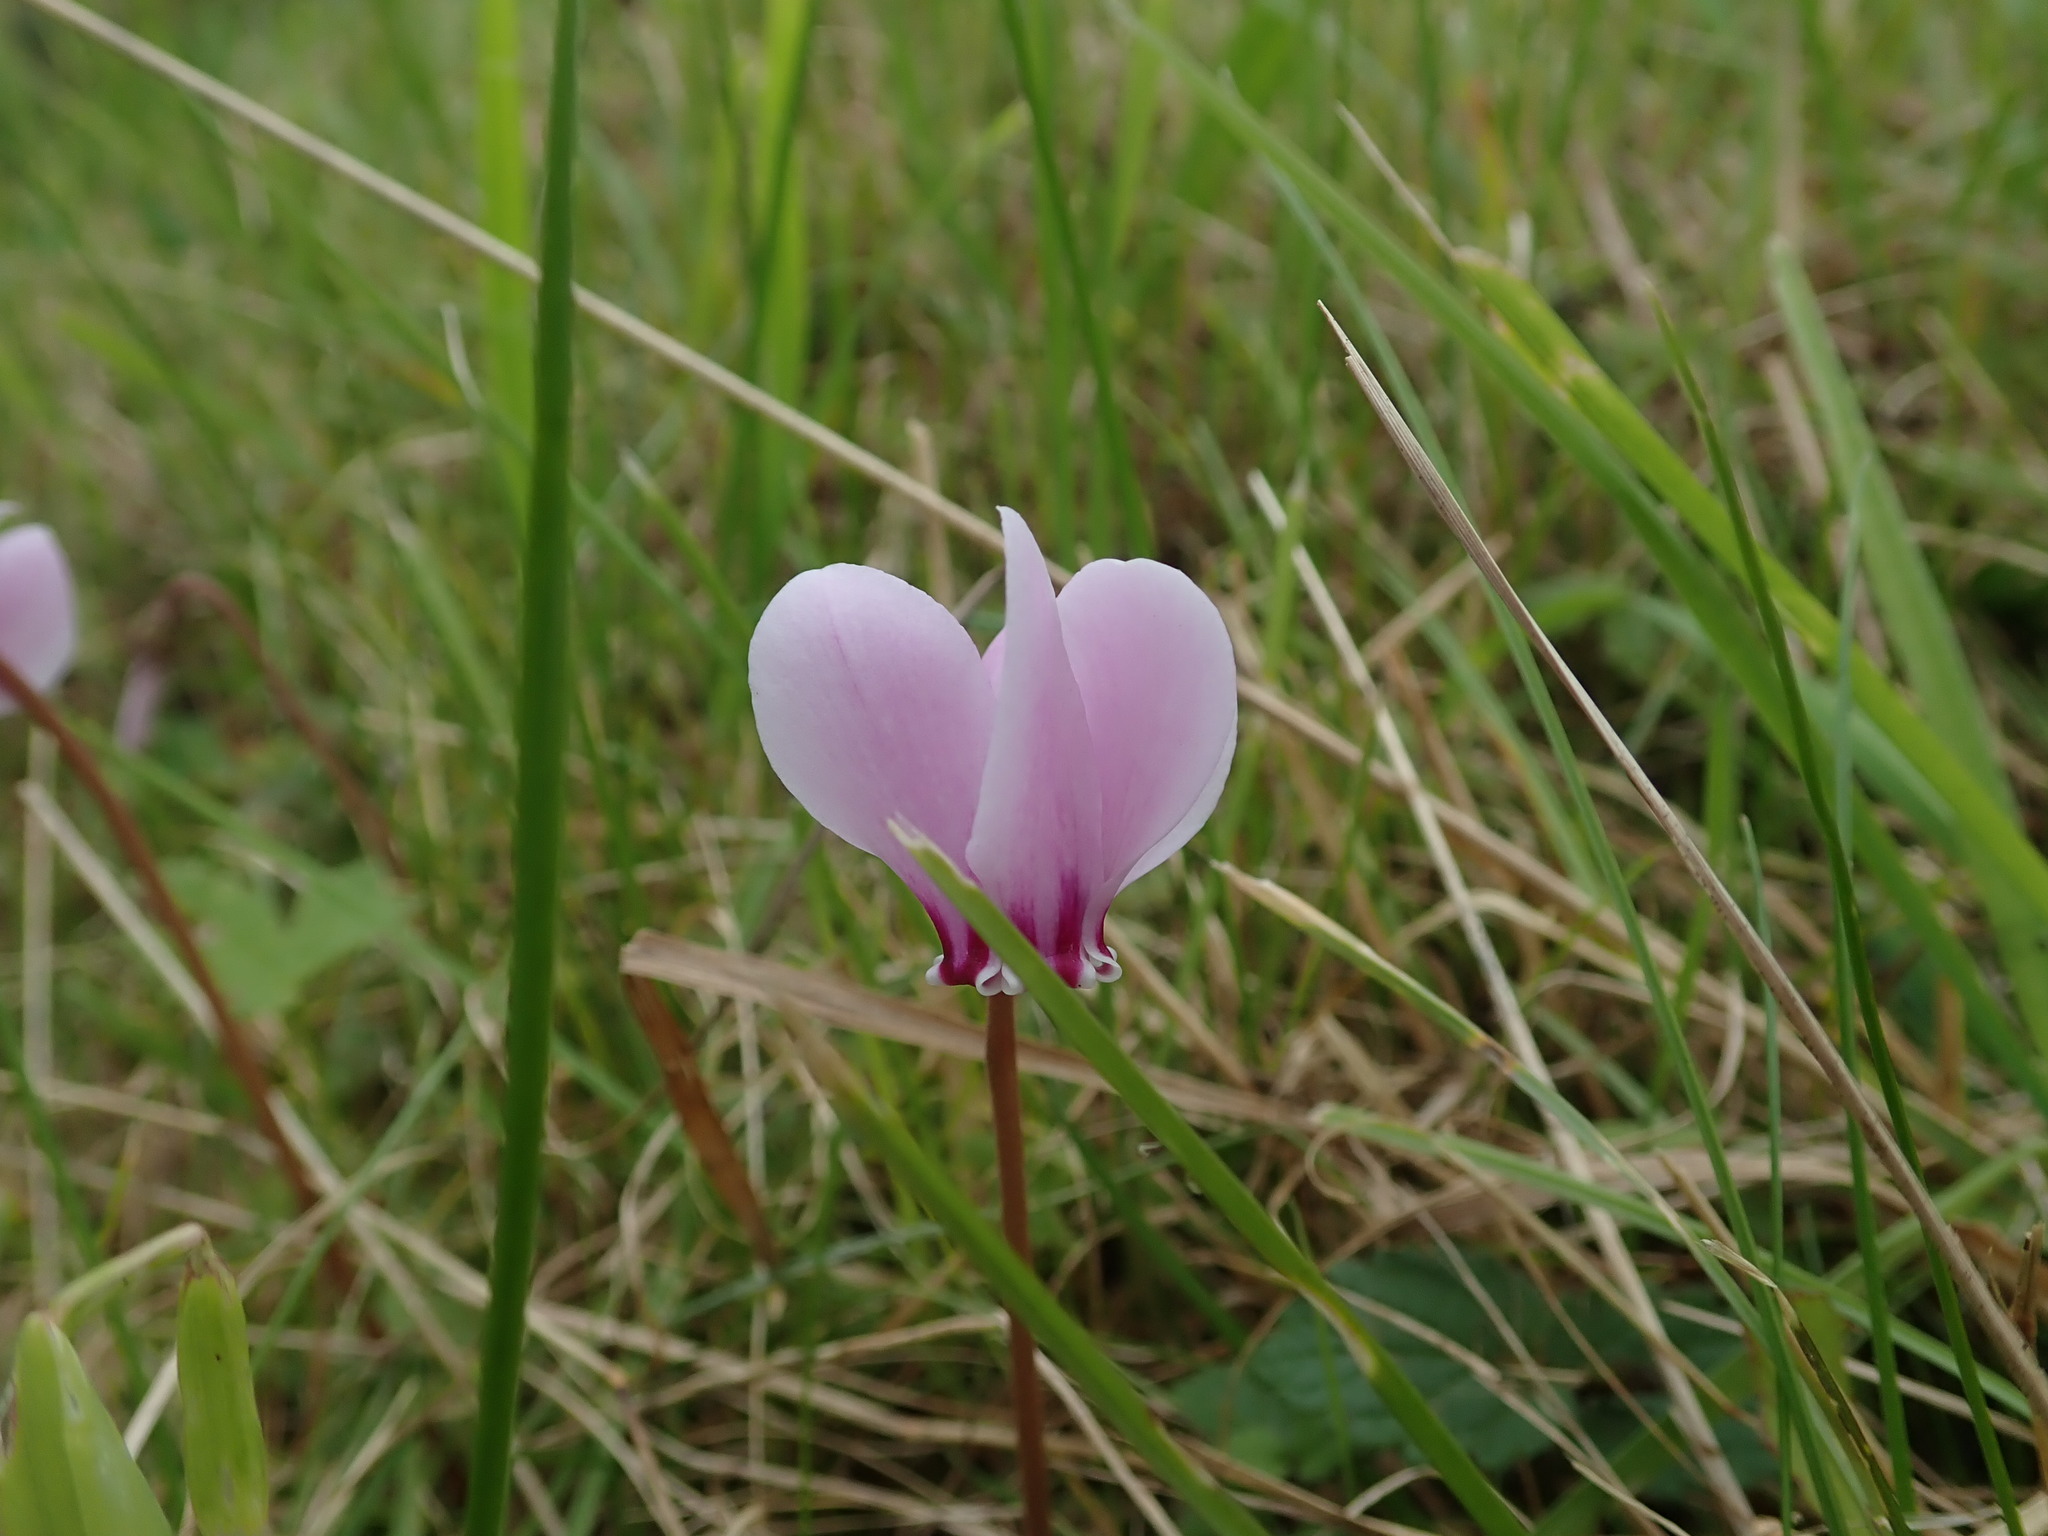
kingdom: Plantae
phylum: Tracheophyta
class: Magnoliopsida
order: Ericales
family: Primulaceae
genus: Cyclamen
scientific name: Cyclamen hederifolium
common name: Sowbread
